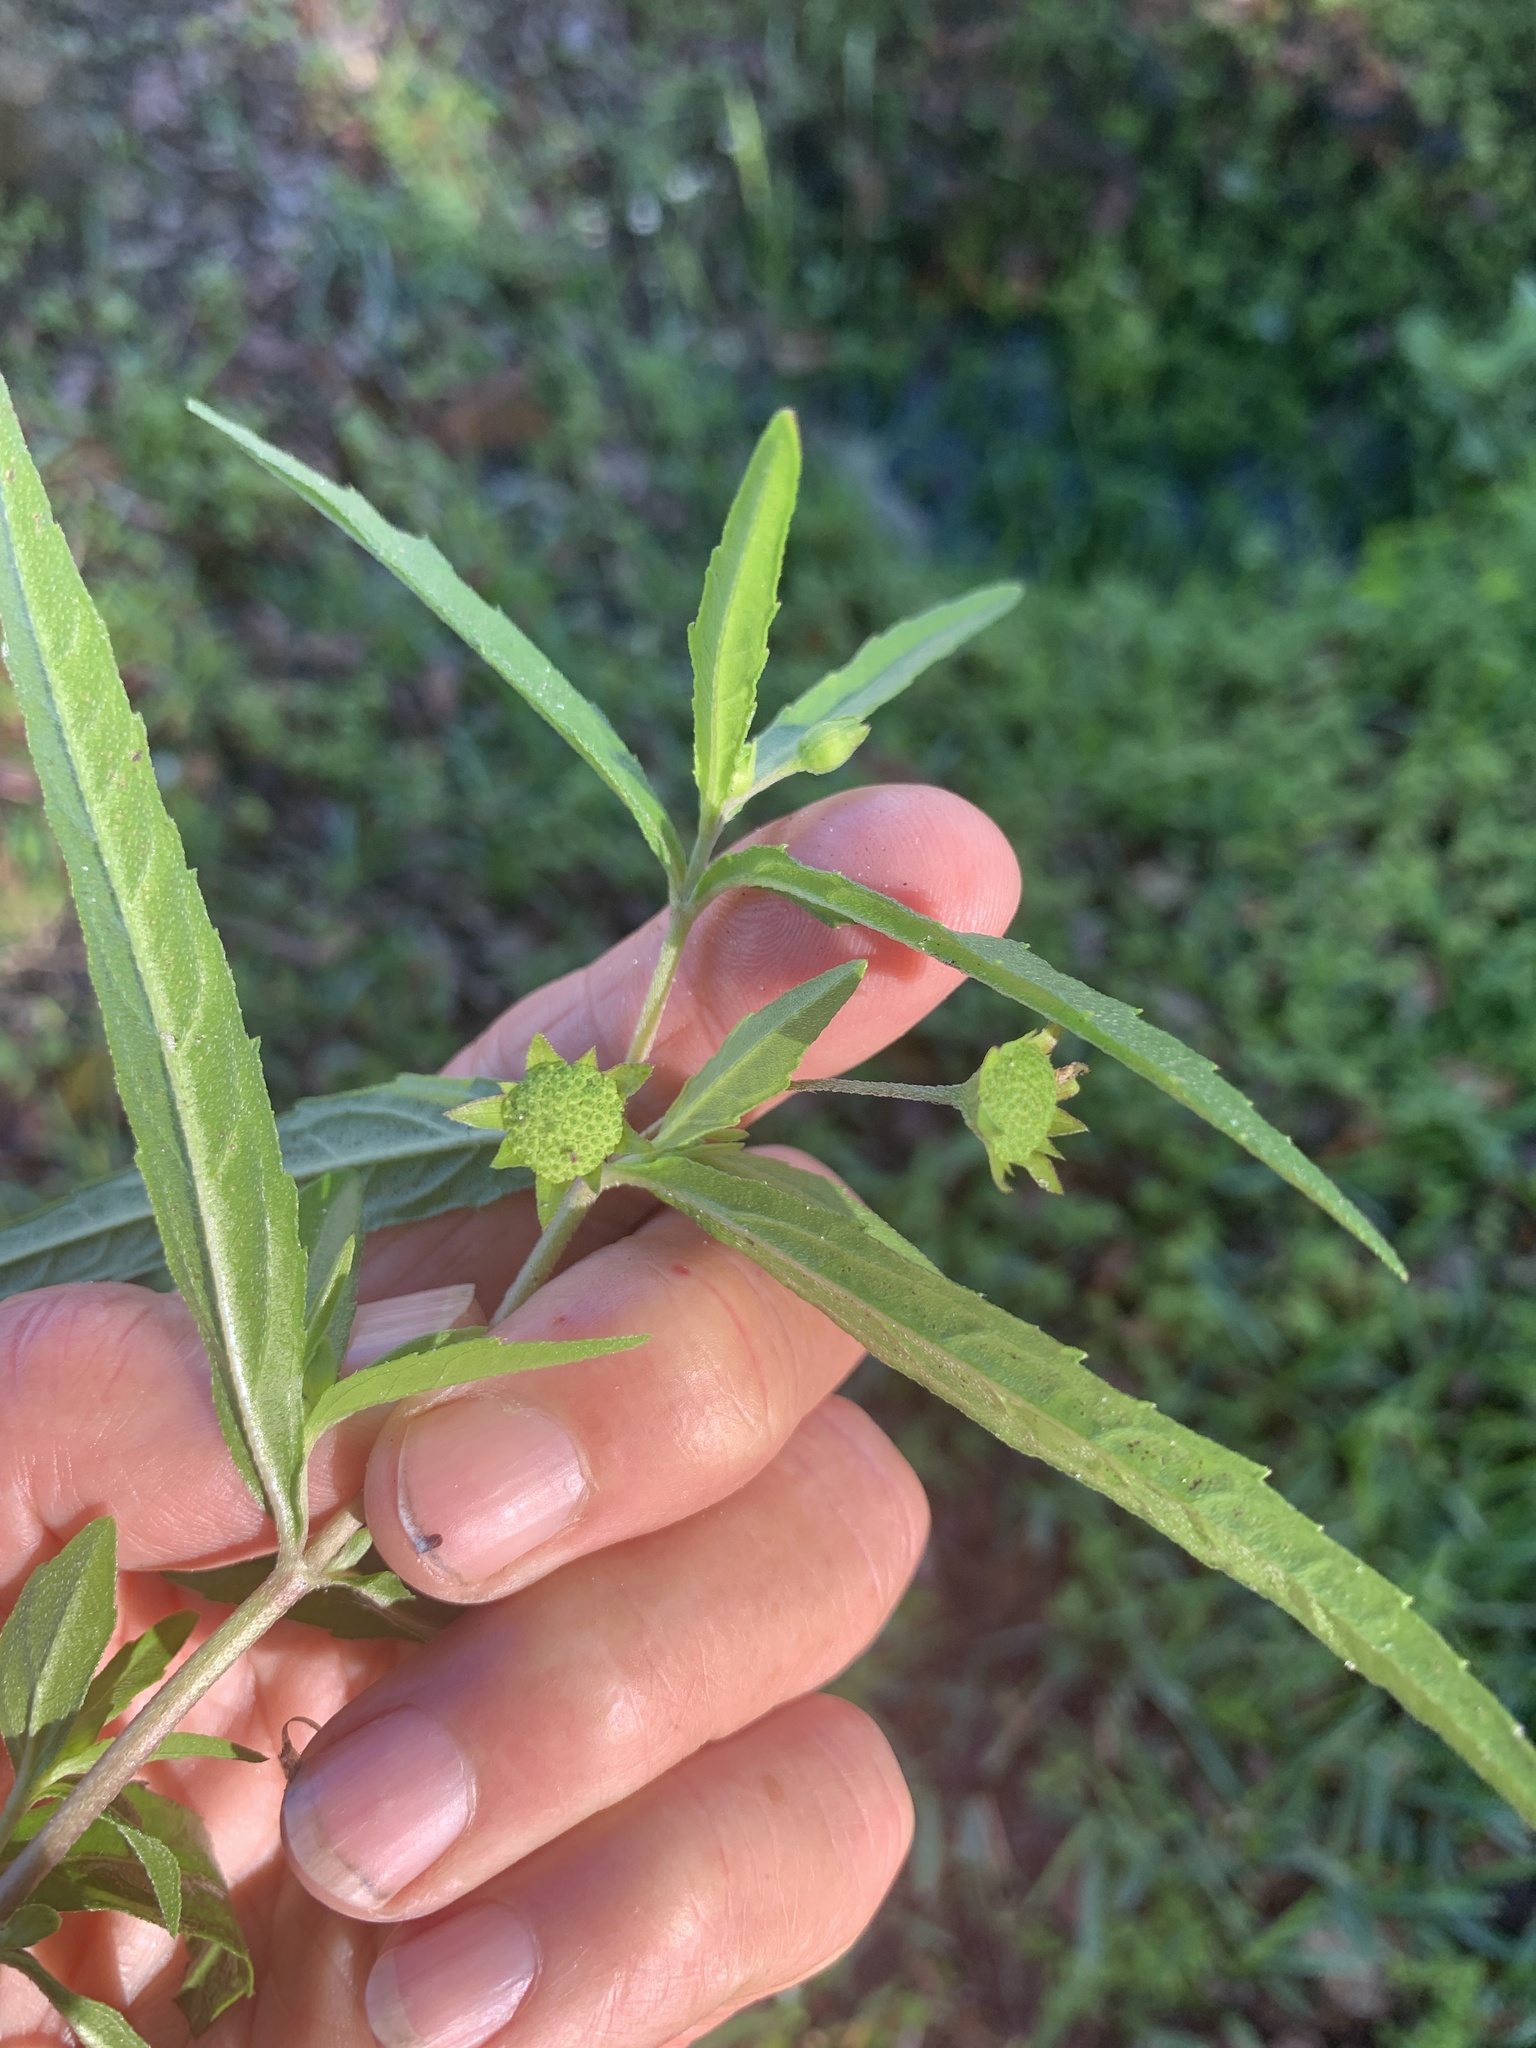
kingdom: Plantae
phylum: Tracheophyta
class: Magnoliopsida
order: Asterales
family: Asteraceae
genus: Eclipta
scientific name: Eclipta prostrata
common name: False daisy
